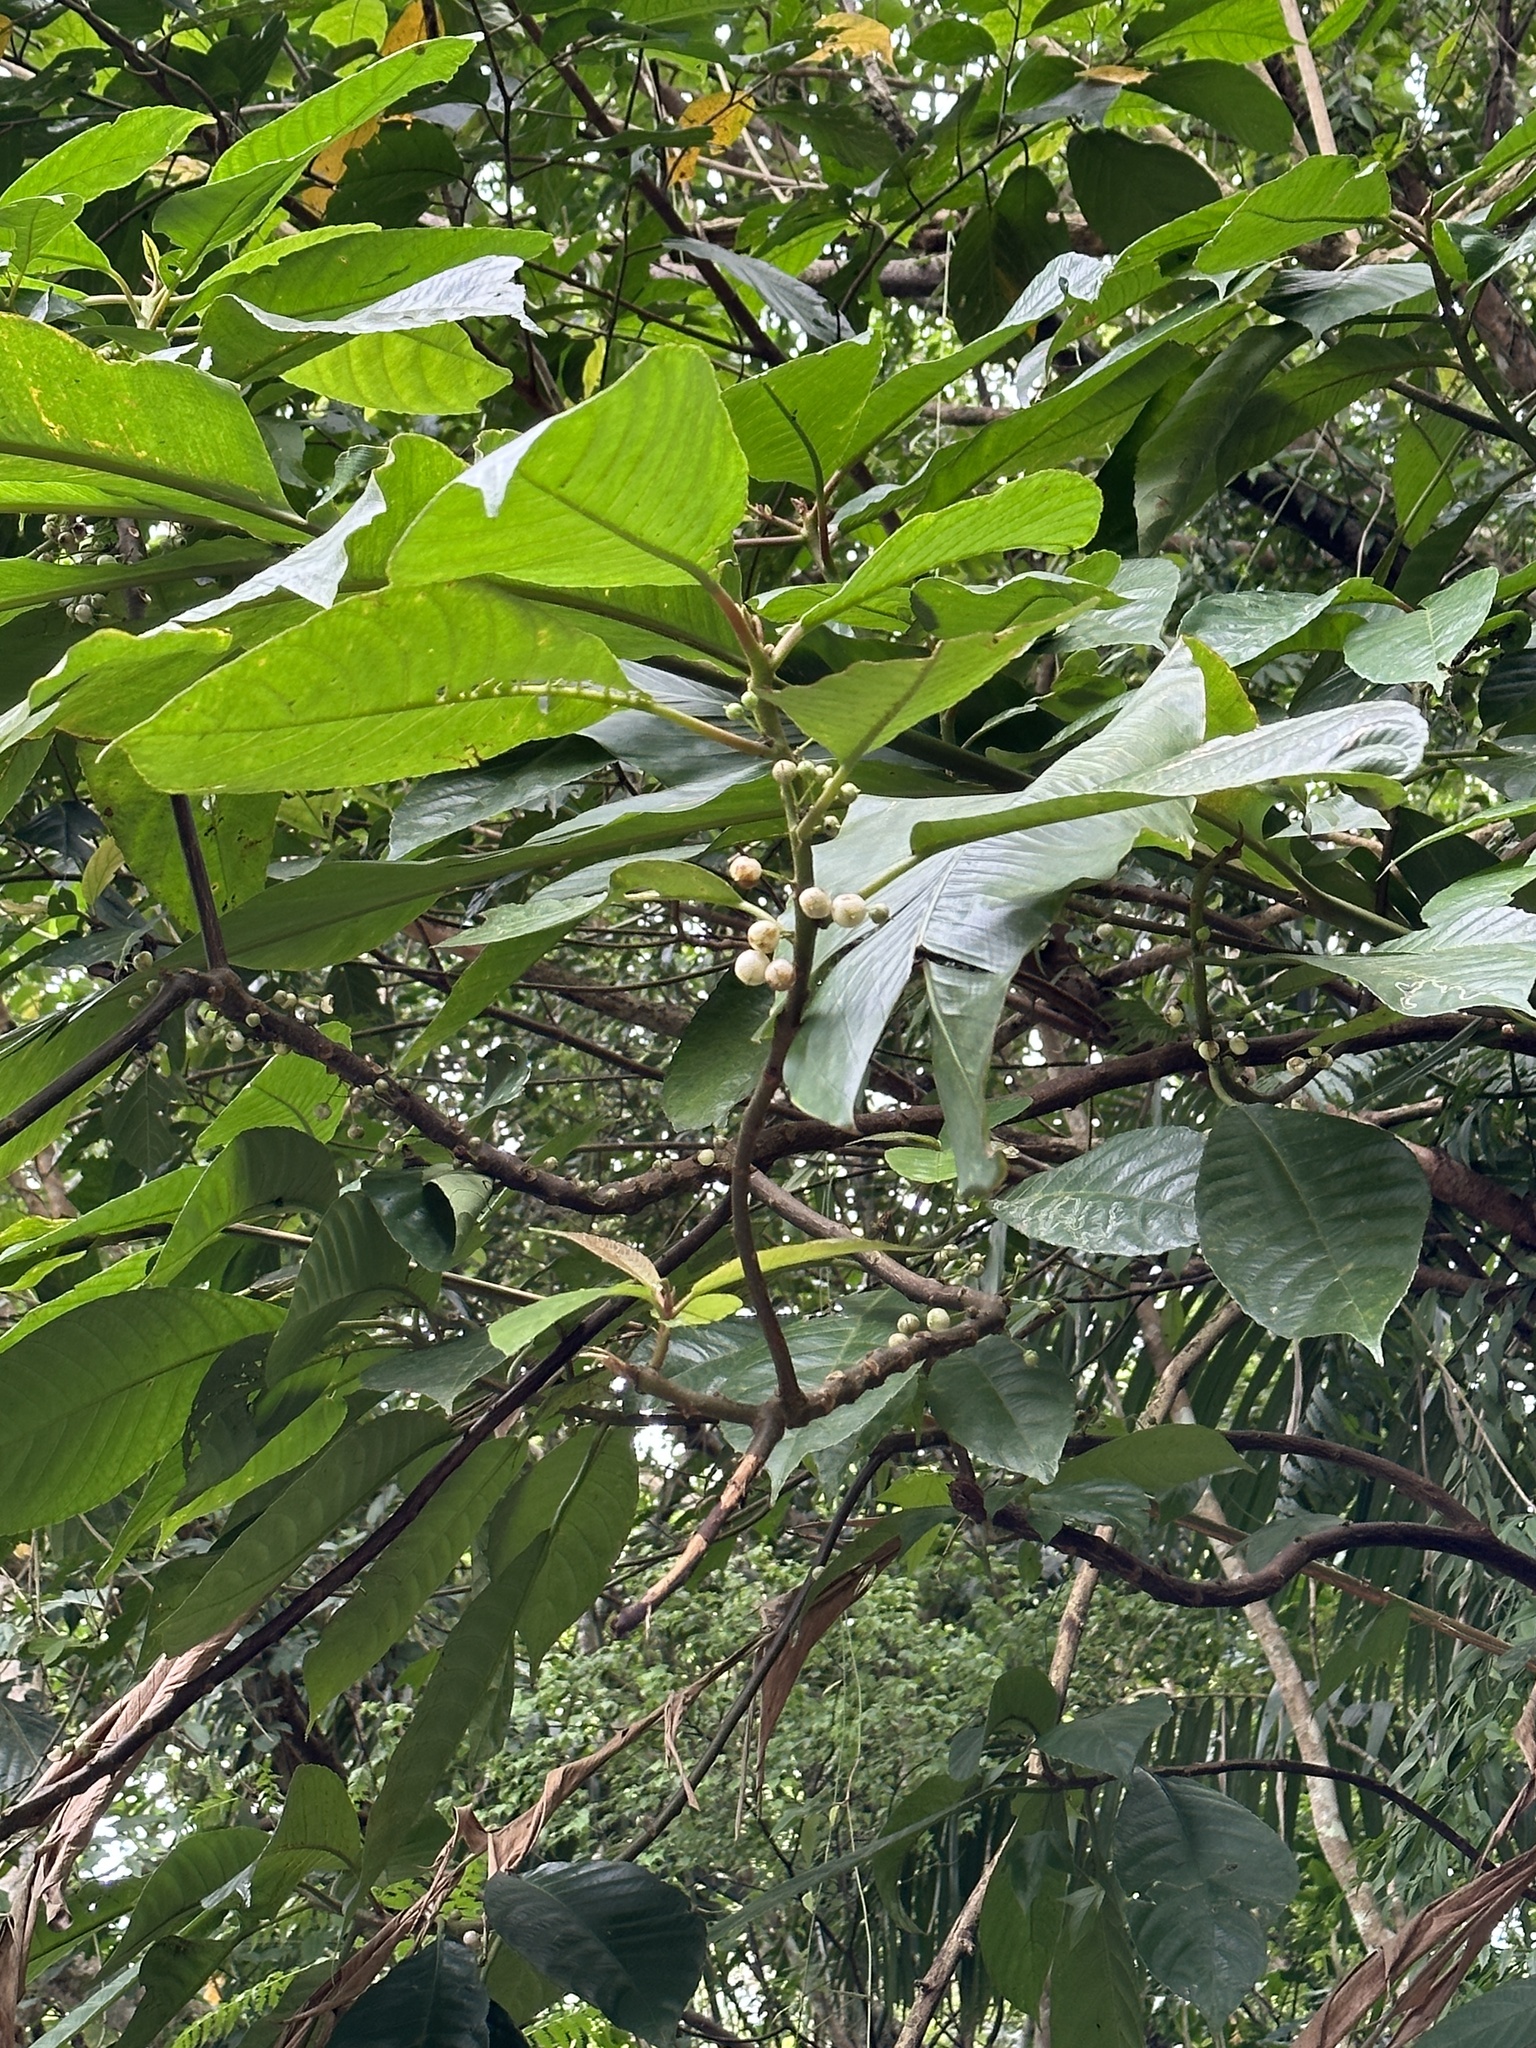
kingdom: Plantae
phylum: Tracheophyta
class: Magnoliopsida
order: Ericales
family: Actinidiaceae
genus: Saurauia
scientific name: Saurauia tristyla
